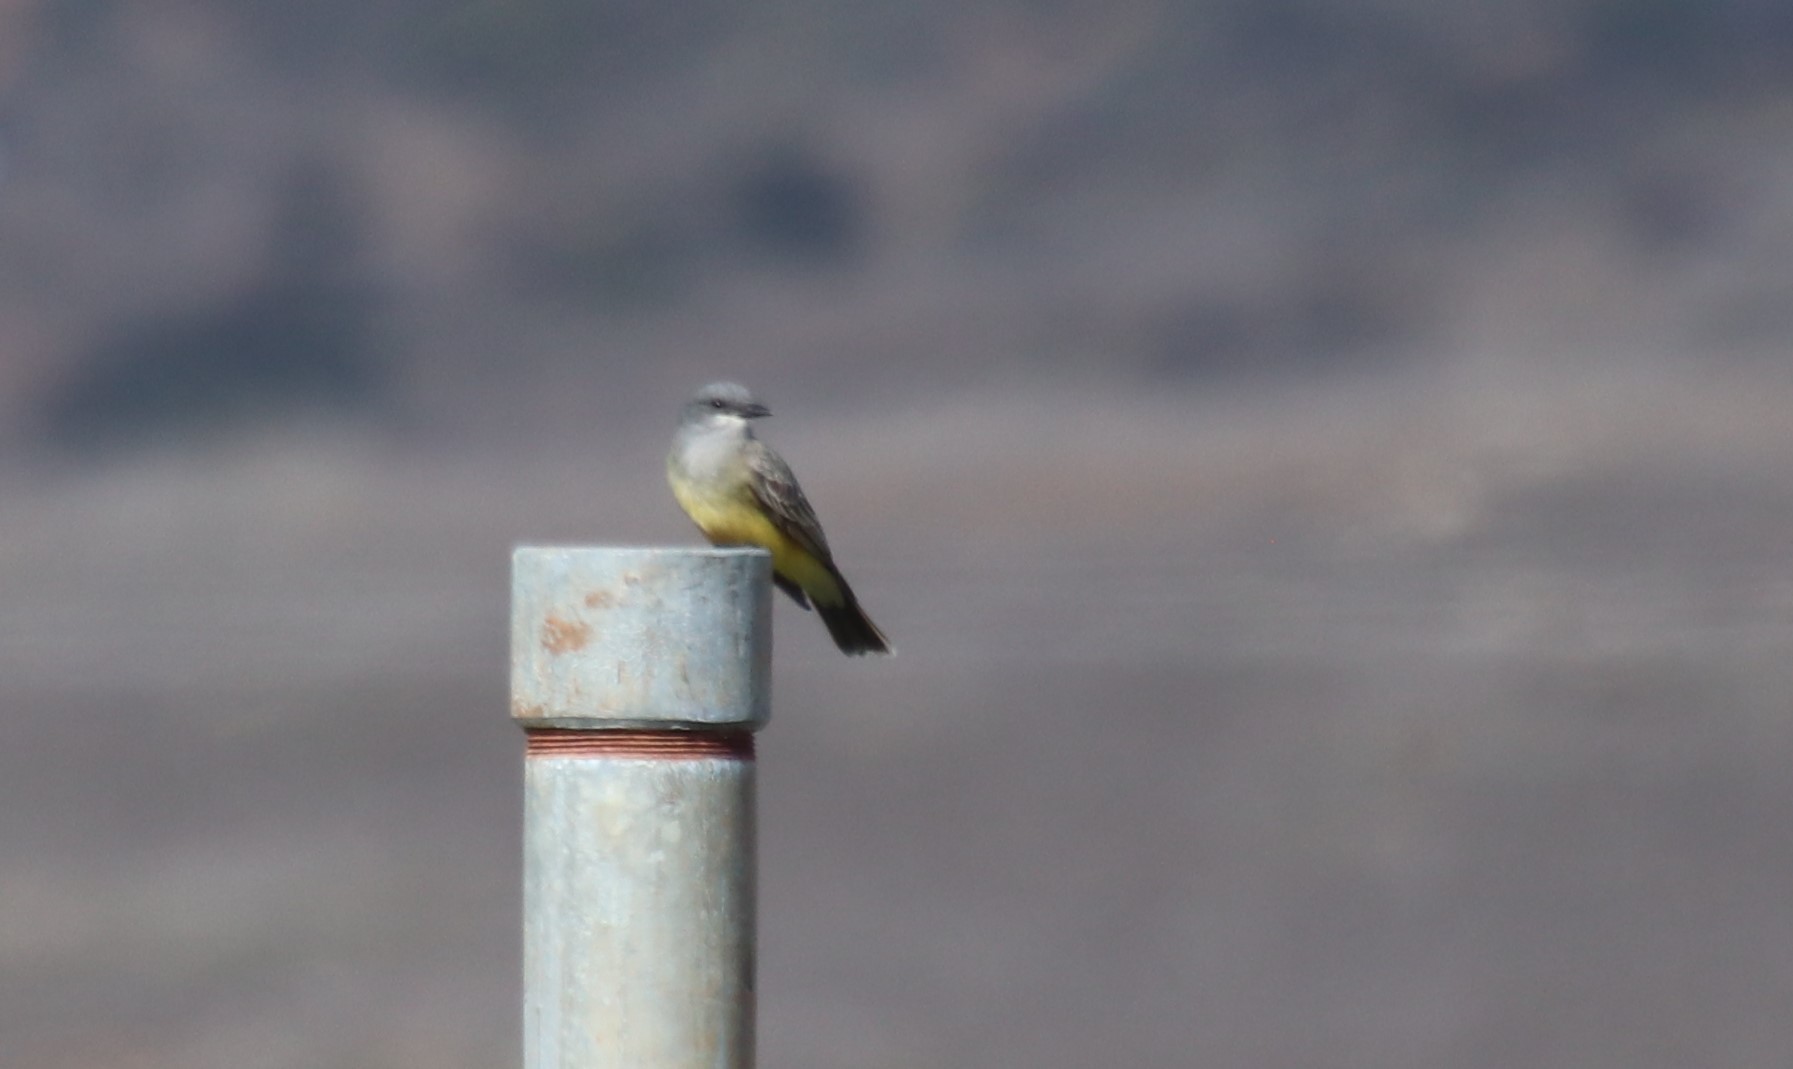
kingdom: Animalia
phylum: Chordata
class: Aves
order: Passeriformes
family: Tyrannidae
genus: Tyrannus
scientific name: Tyrannus vociferans
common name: Cassin's kingbird
